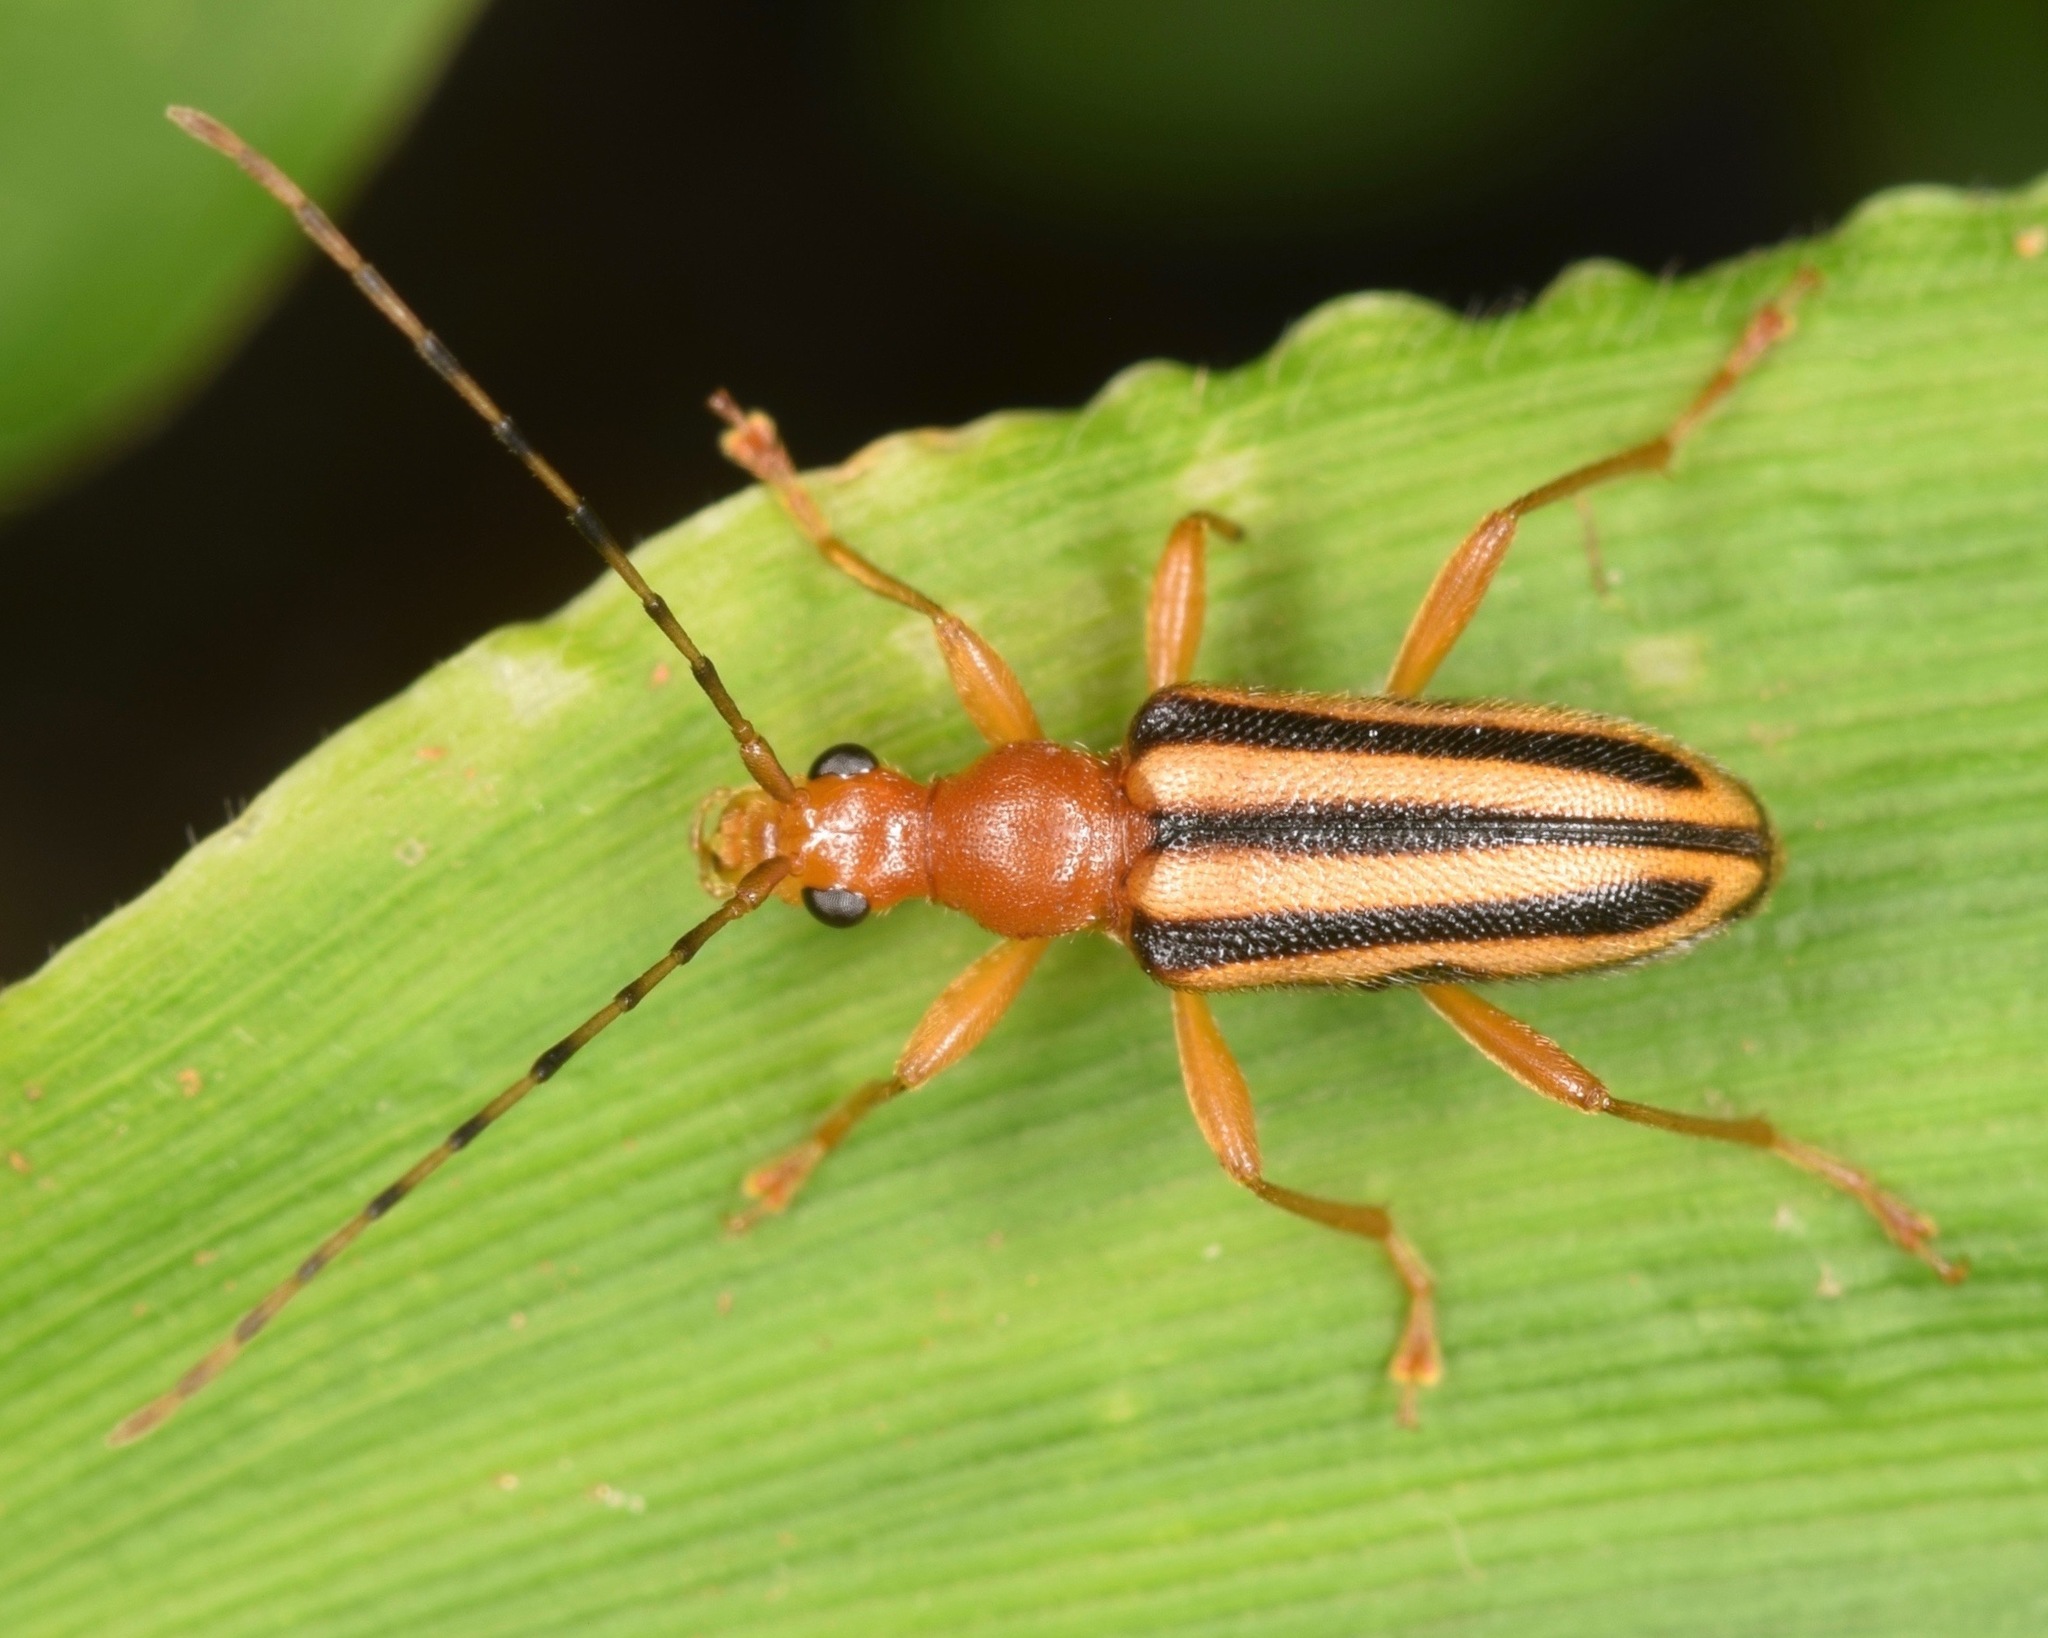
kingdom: Animalia
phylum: Arthropoda
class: Insecta
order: Coleoptera
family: Cerambycidae
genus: Metacmaeops
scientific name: Metacmaeops vittata
